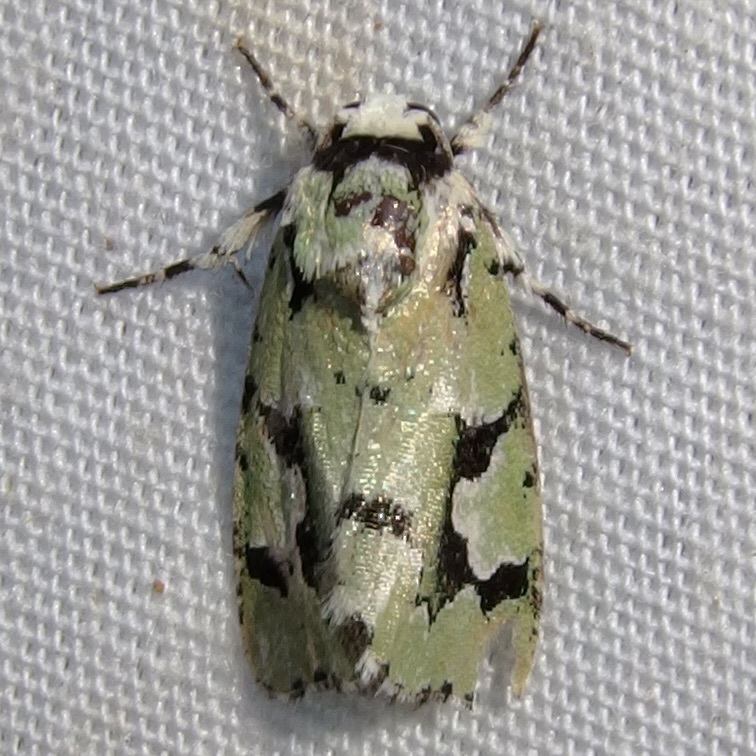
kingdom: Animalia
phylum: Arthropoda
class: Insecta
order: Lepidoptera
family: Noctuidae
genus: Emarginea
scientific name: Emarginea dulcinea
